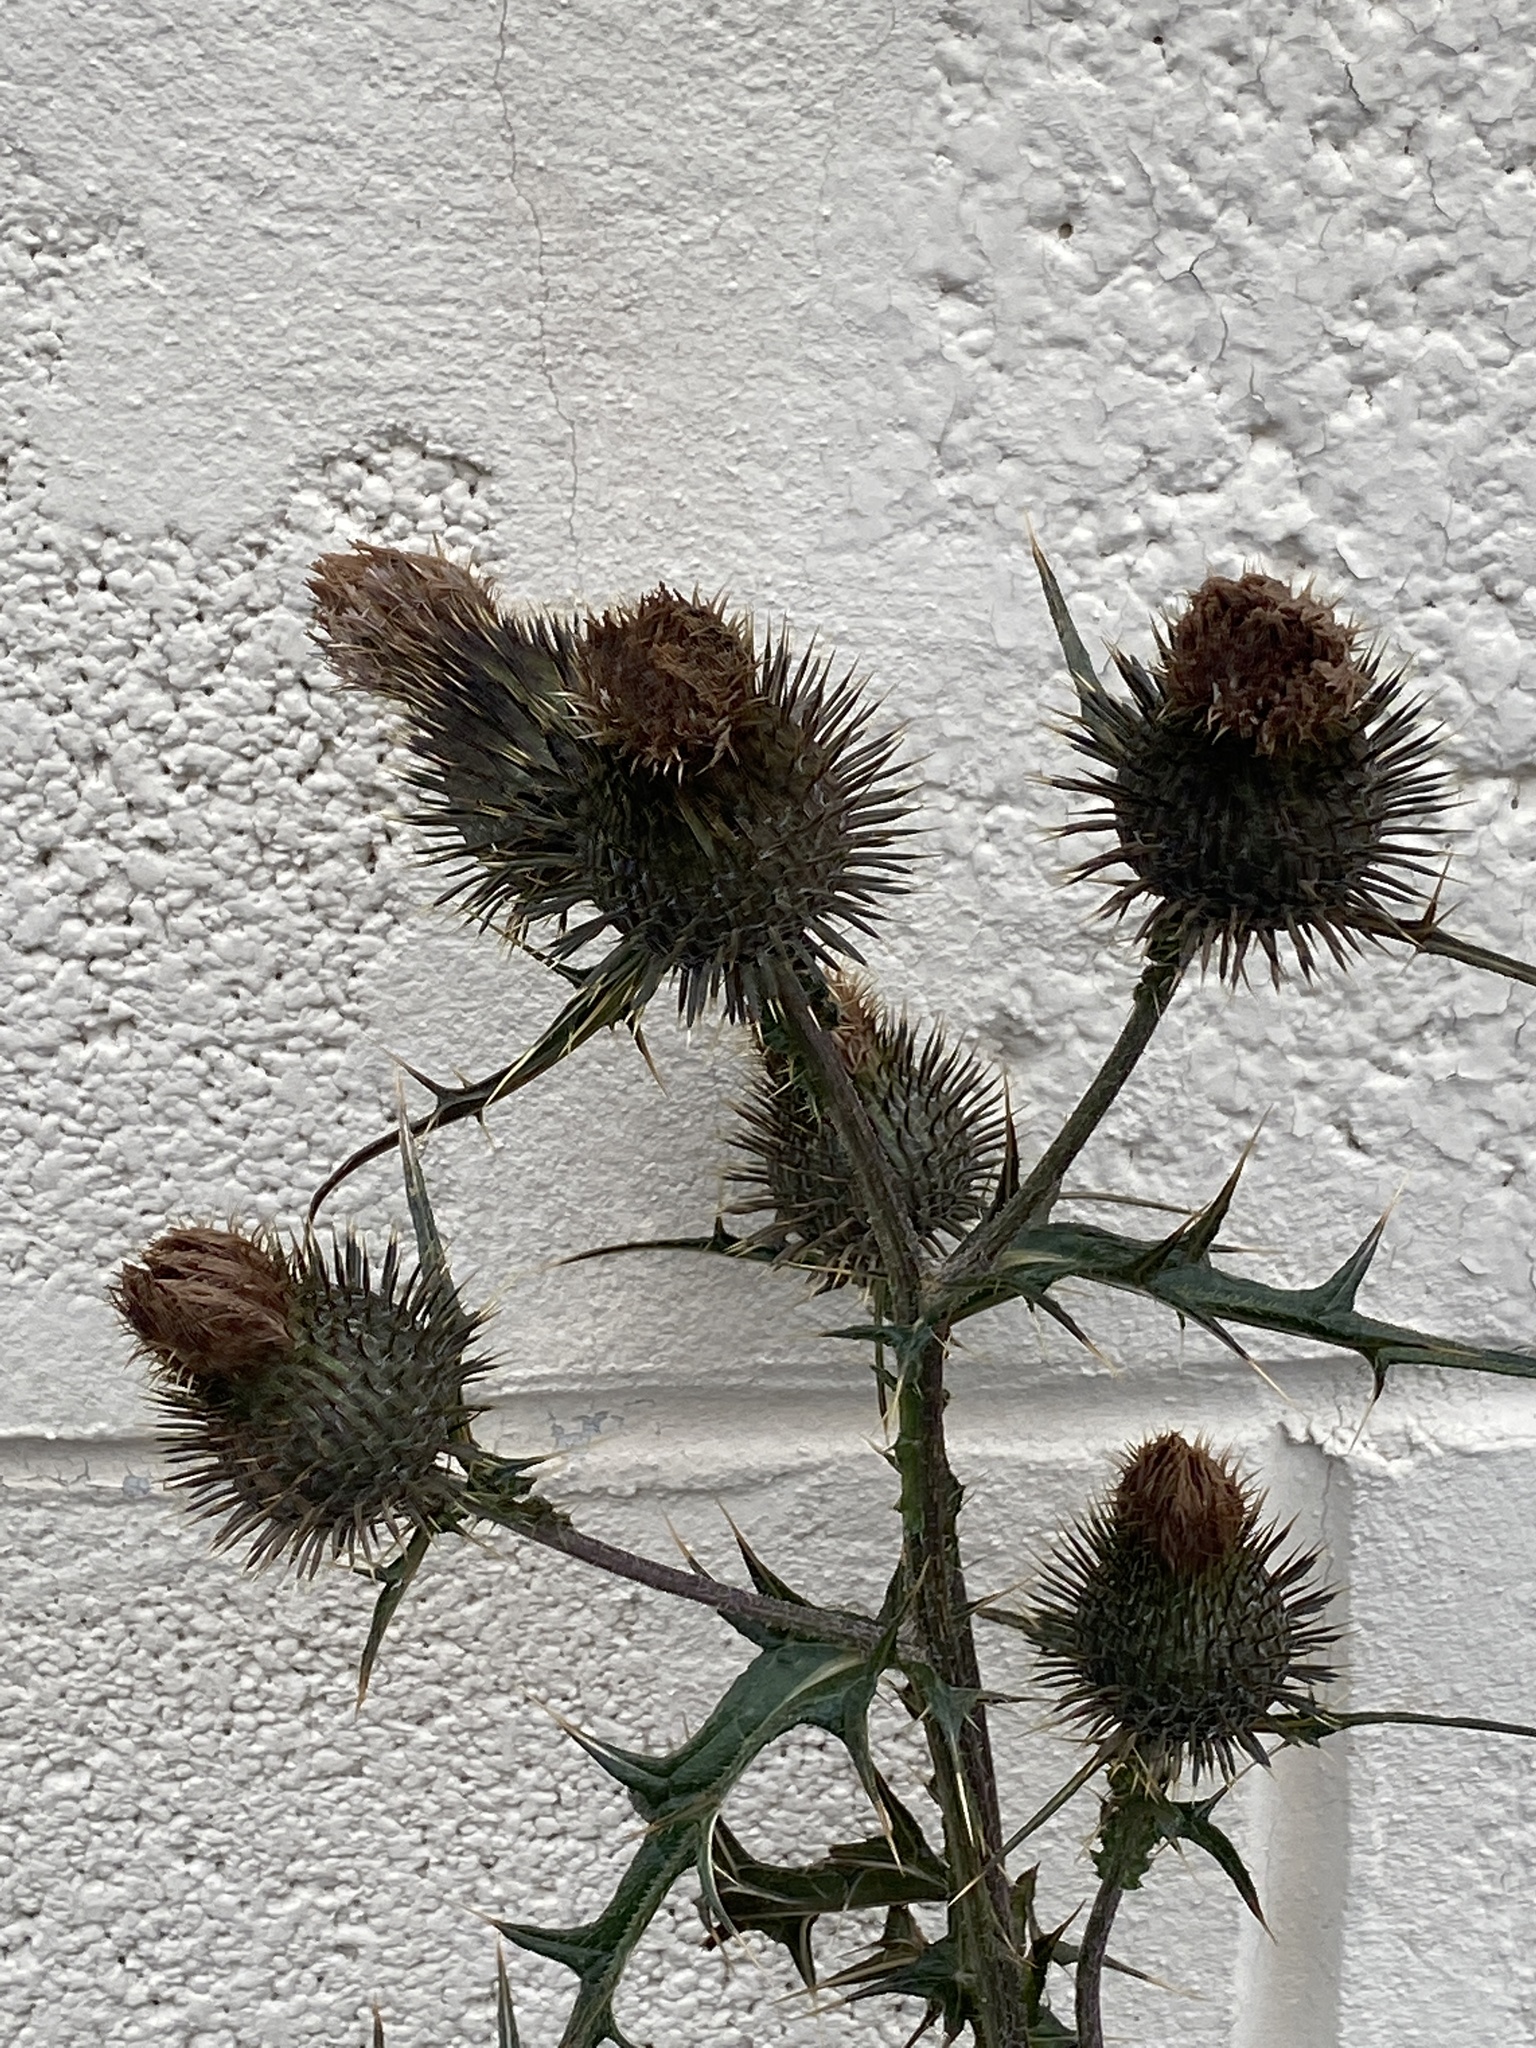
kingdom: Plantae
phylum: Tracheophyta
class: Magnoliopsida
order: Asterales
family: Asteraceae
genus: Cirsium
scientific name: Cirsium vulgare
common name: Bull thistle
